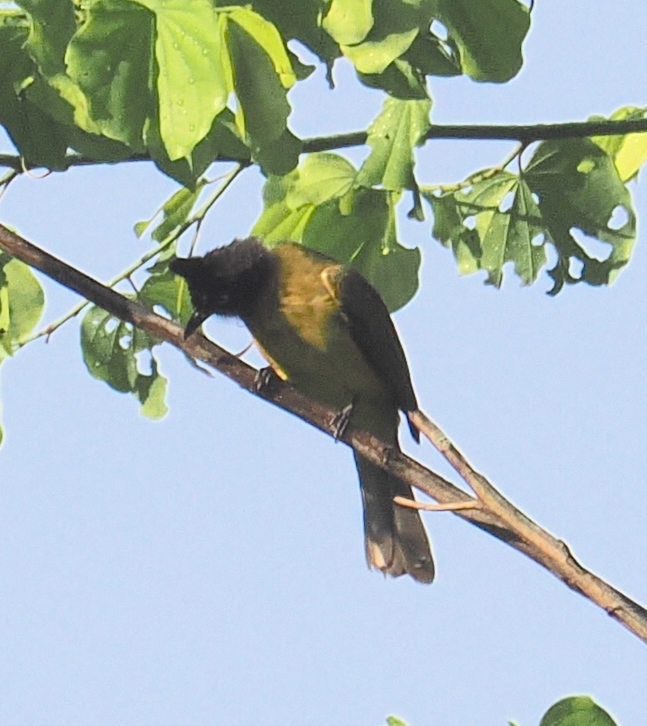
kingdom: Animalia
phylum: Chordata
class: Aves
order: Passeriformes
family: Pycnonotidae
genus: Pycnonotus
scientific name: Pycnonotus flaviventris
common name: Black-crested bulbul
